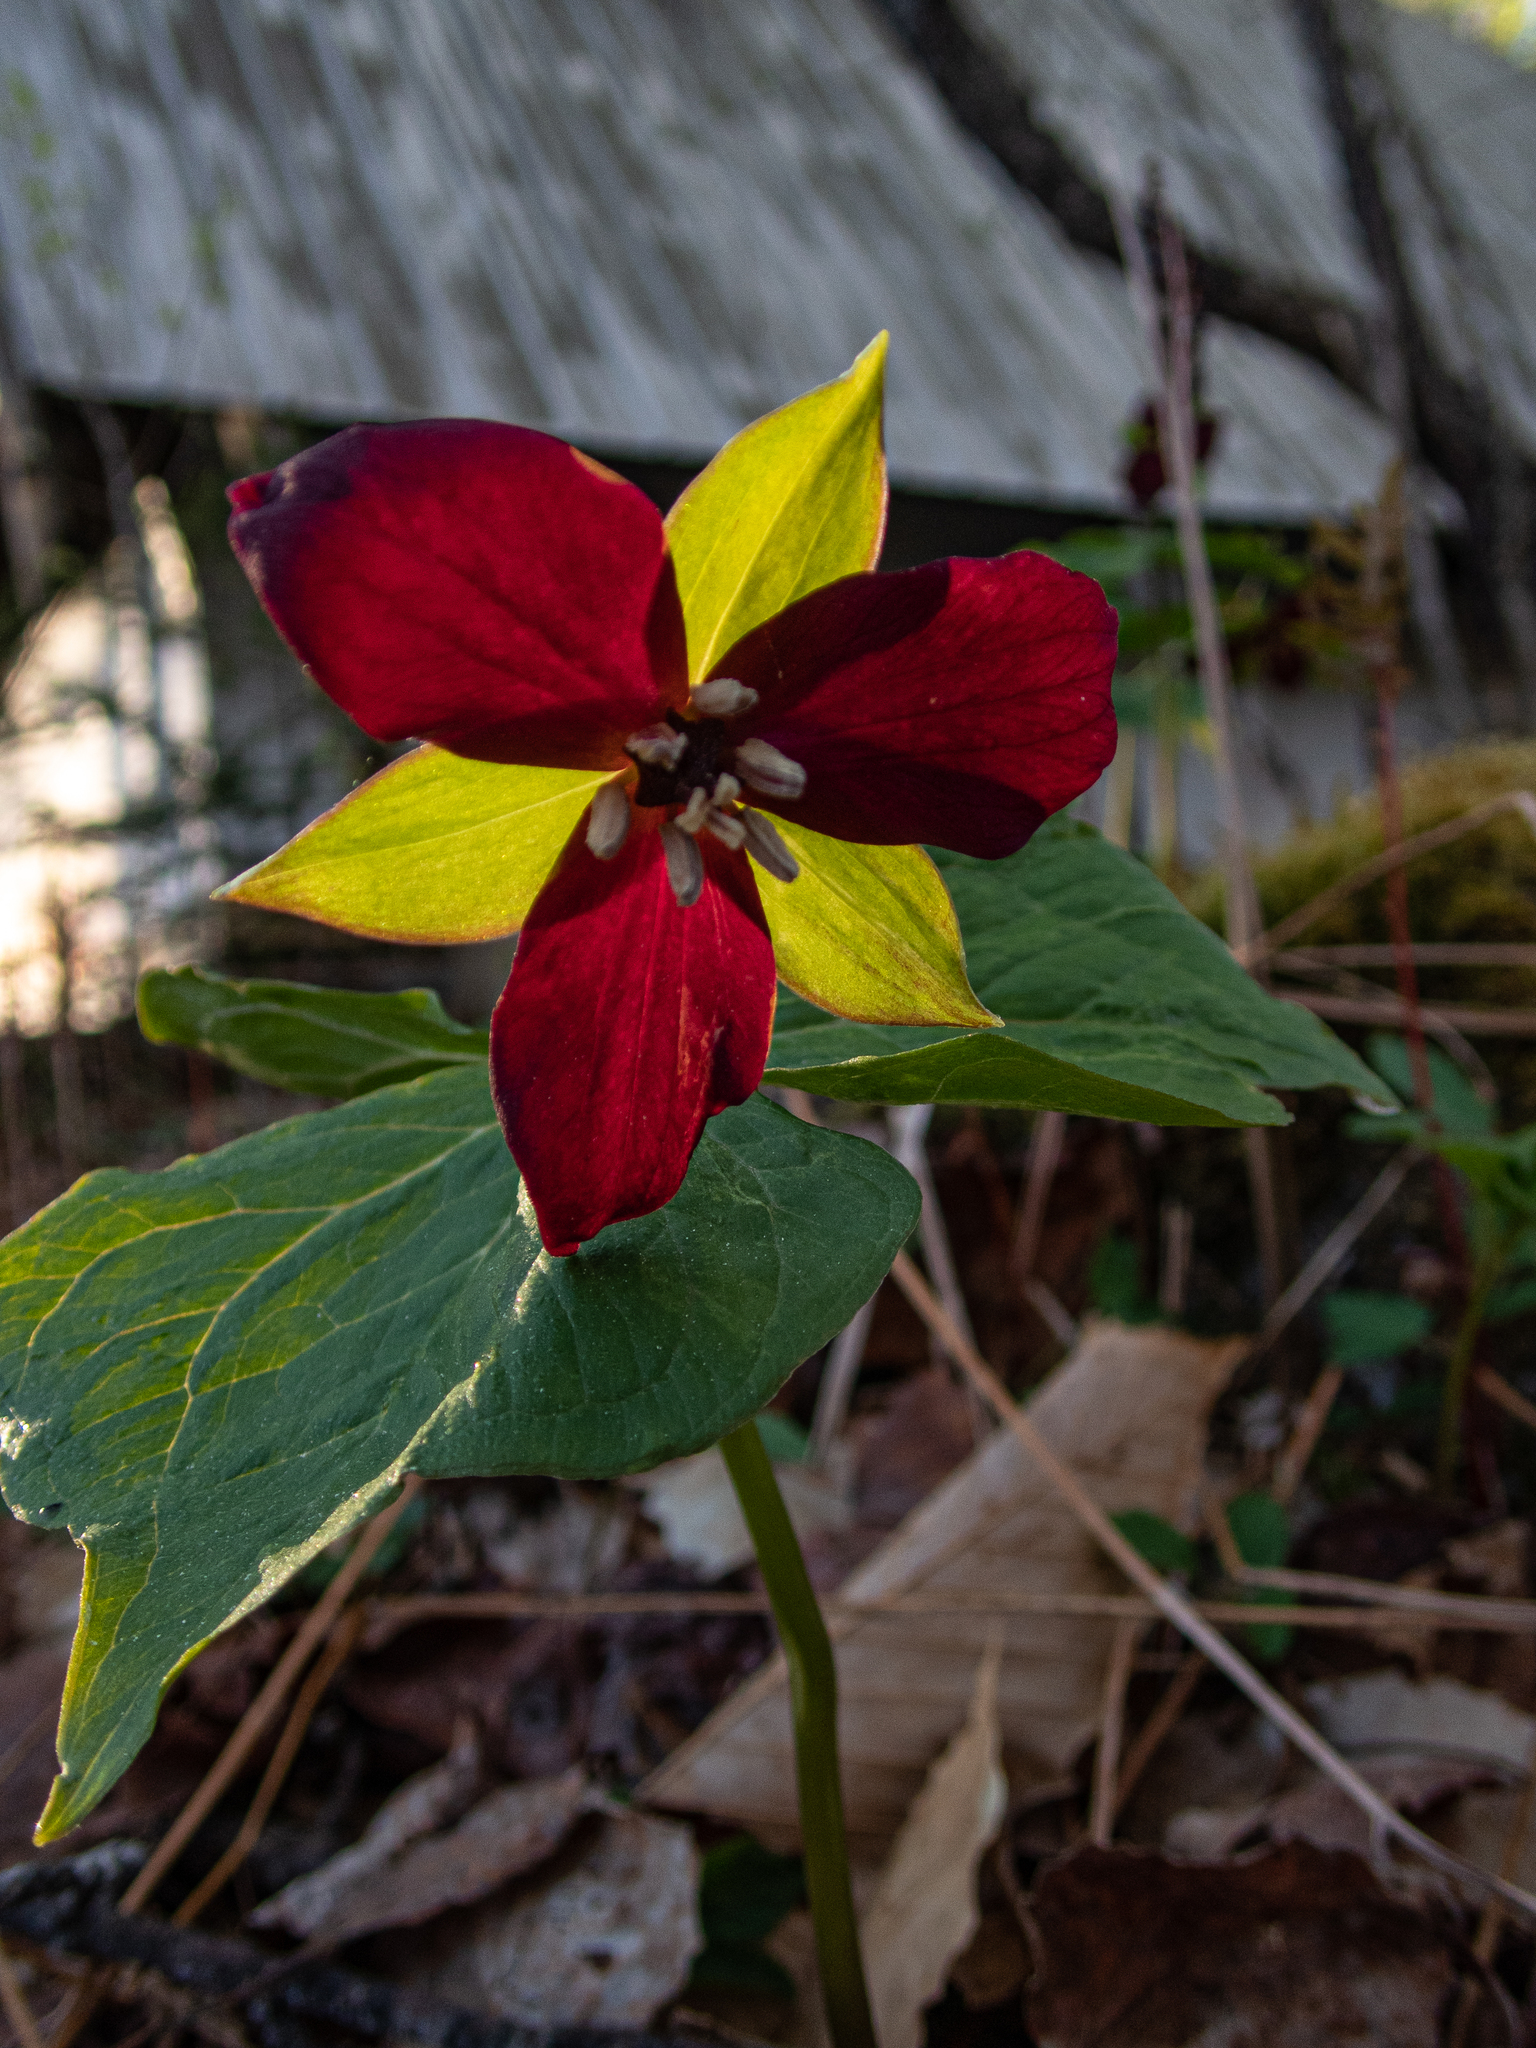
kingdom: Plantae
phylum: Tracheophyta
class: Liliopsida
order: Liliales
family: Melanthiaceae
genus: Trillium
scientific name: Trillium erectum
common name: Purple trillium
